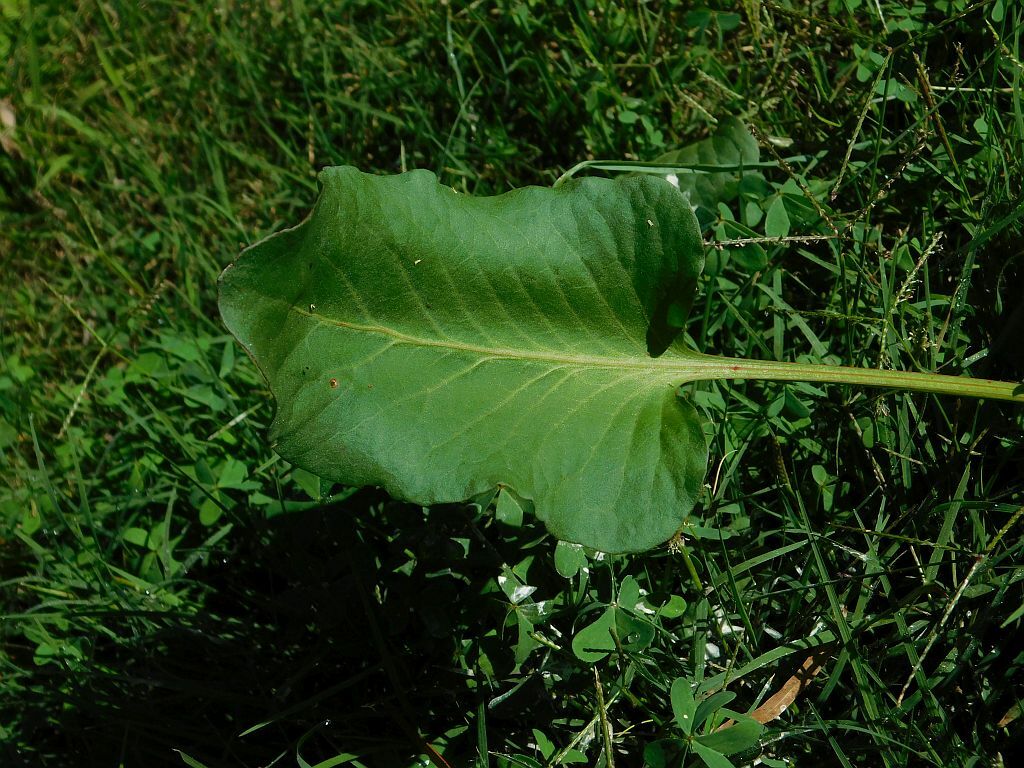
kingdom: Plantae
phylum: Tracheophyta
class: Liliopsida
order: Alismatales
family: Araceae
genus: Zantedeschia
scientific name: Zantedeschia aethiopica
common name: Altar-lily
